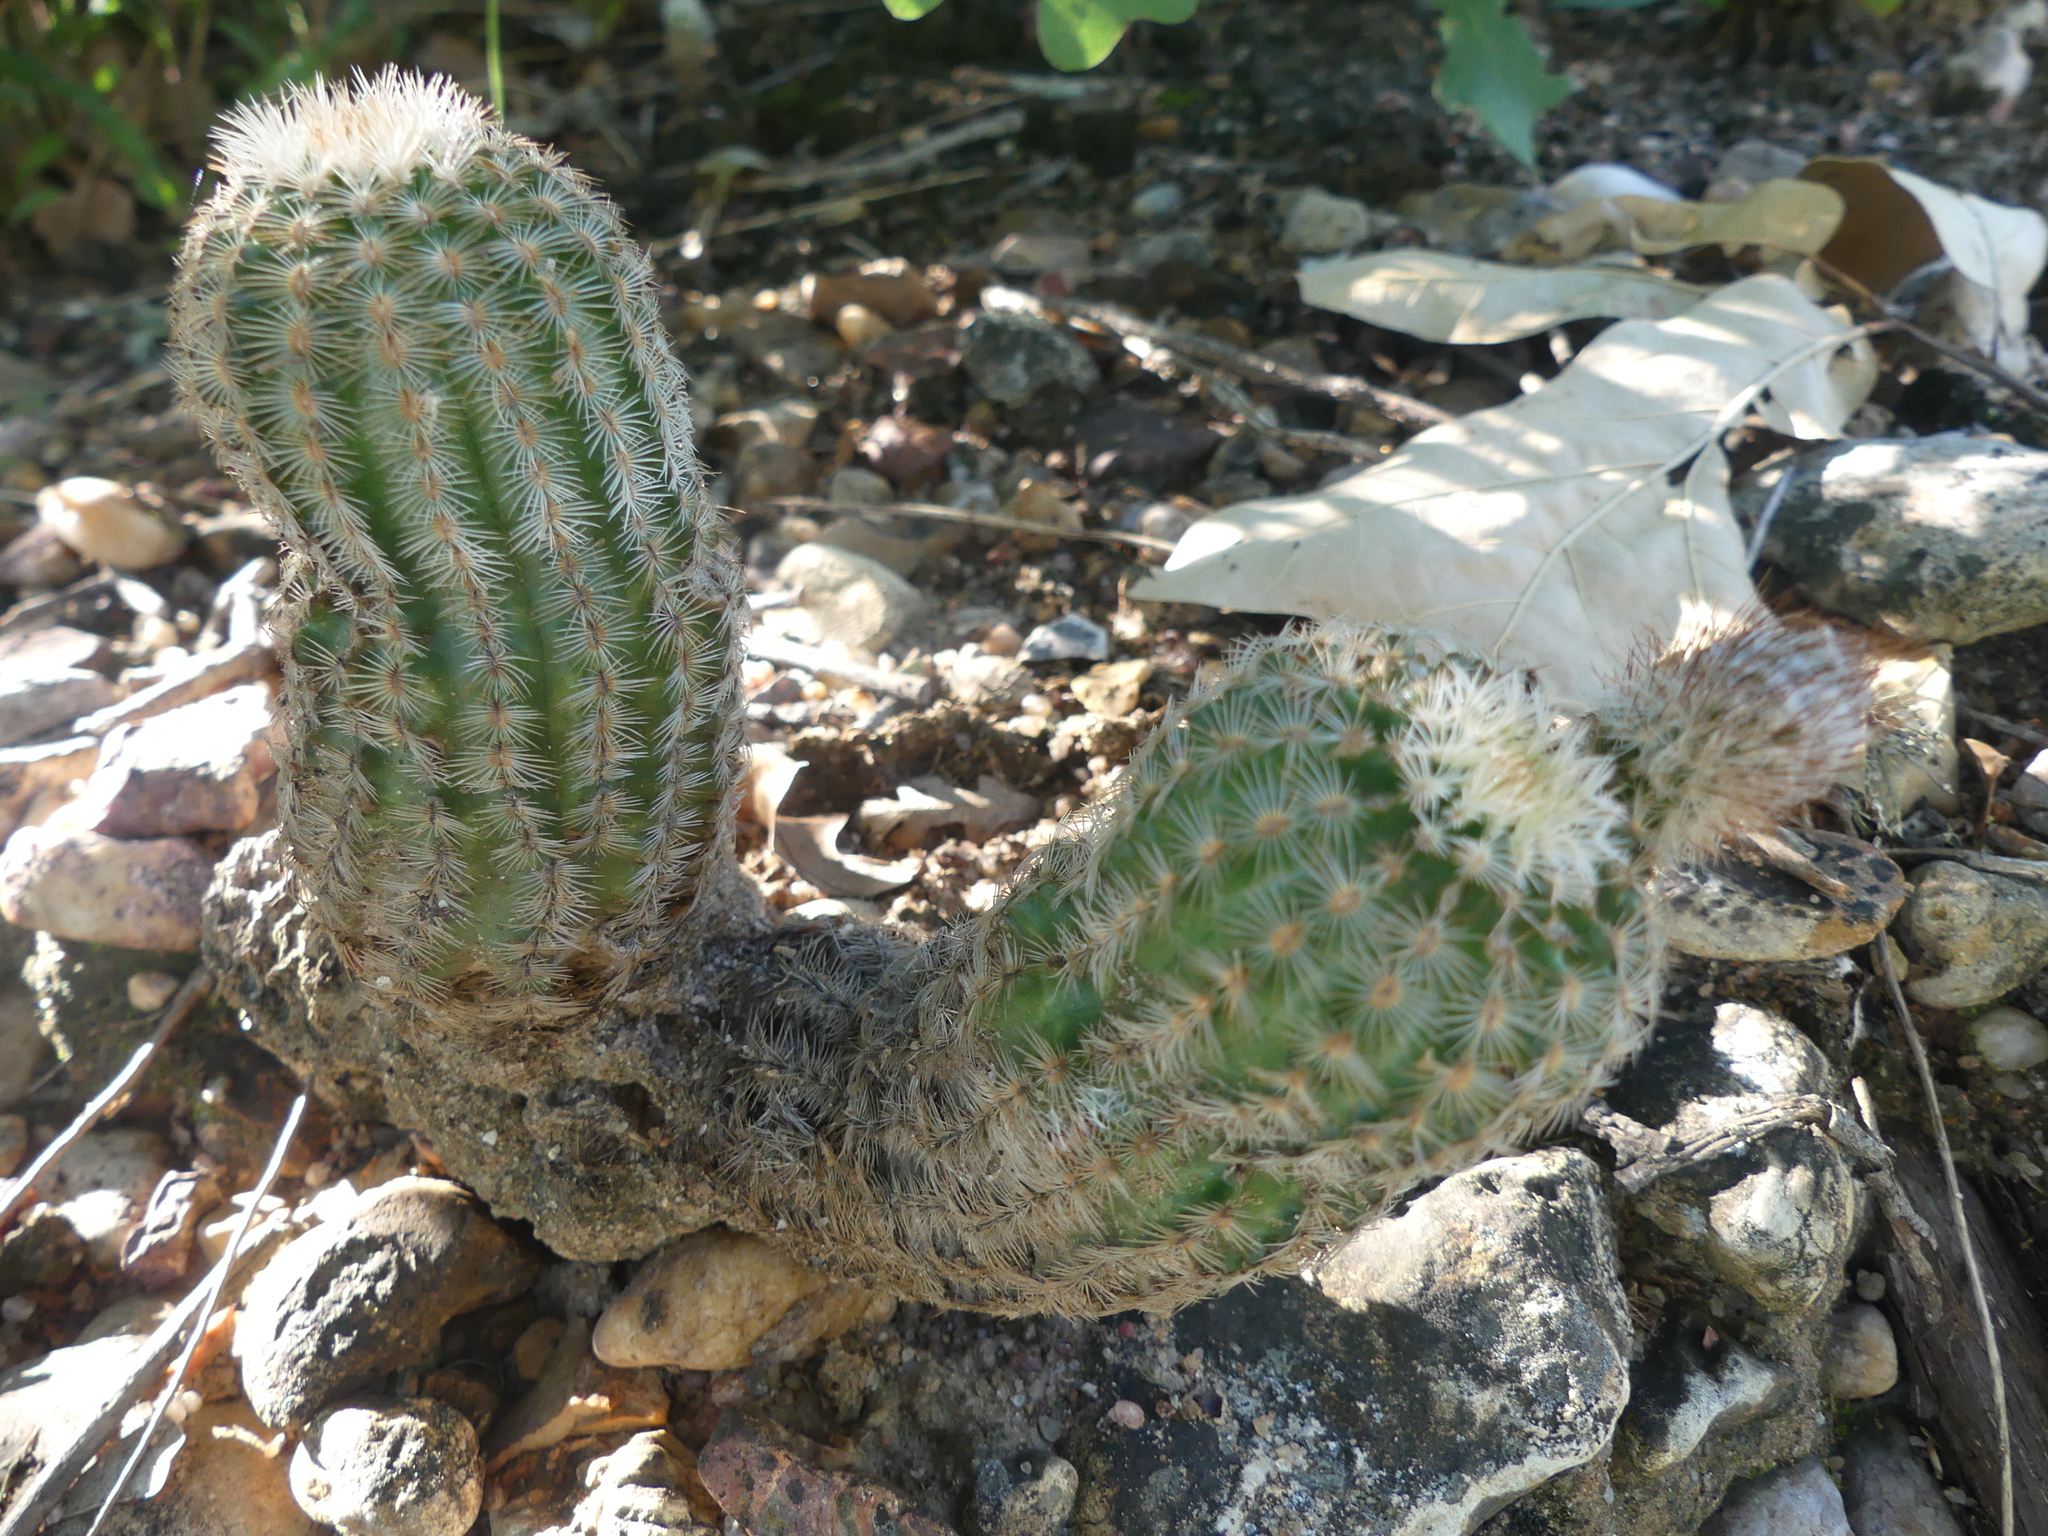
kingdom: Plantae
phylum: Tracheophyta
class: Magnoliopsida
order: Caryophyllales
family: Cactaceae
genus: Echinocereus
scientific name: Echinocereus reichenbachii
